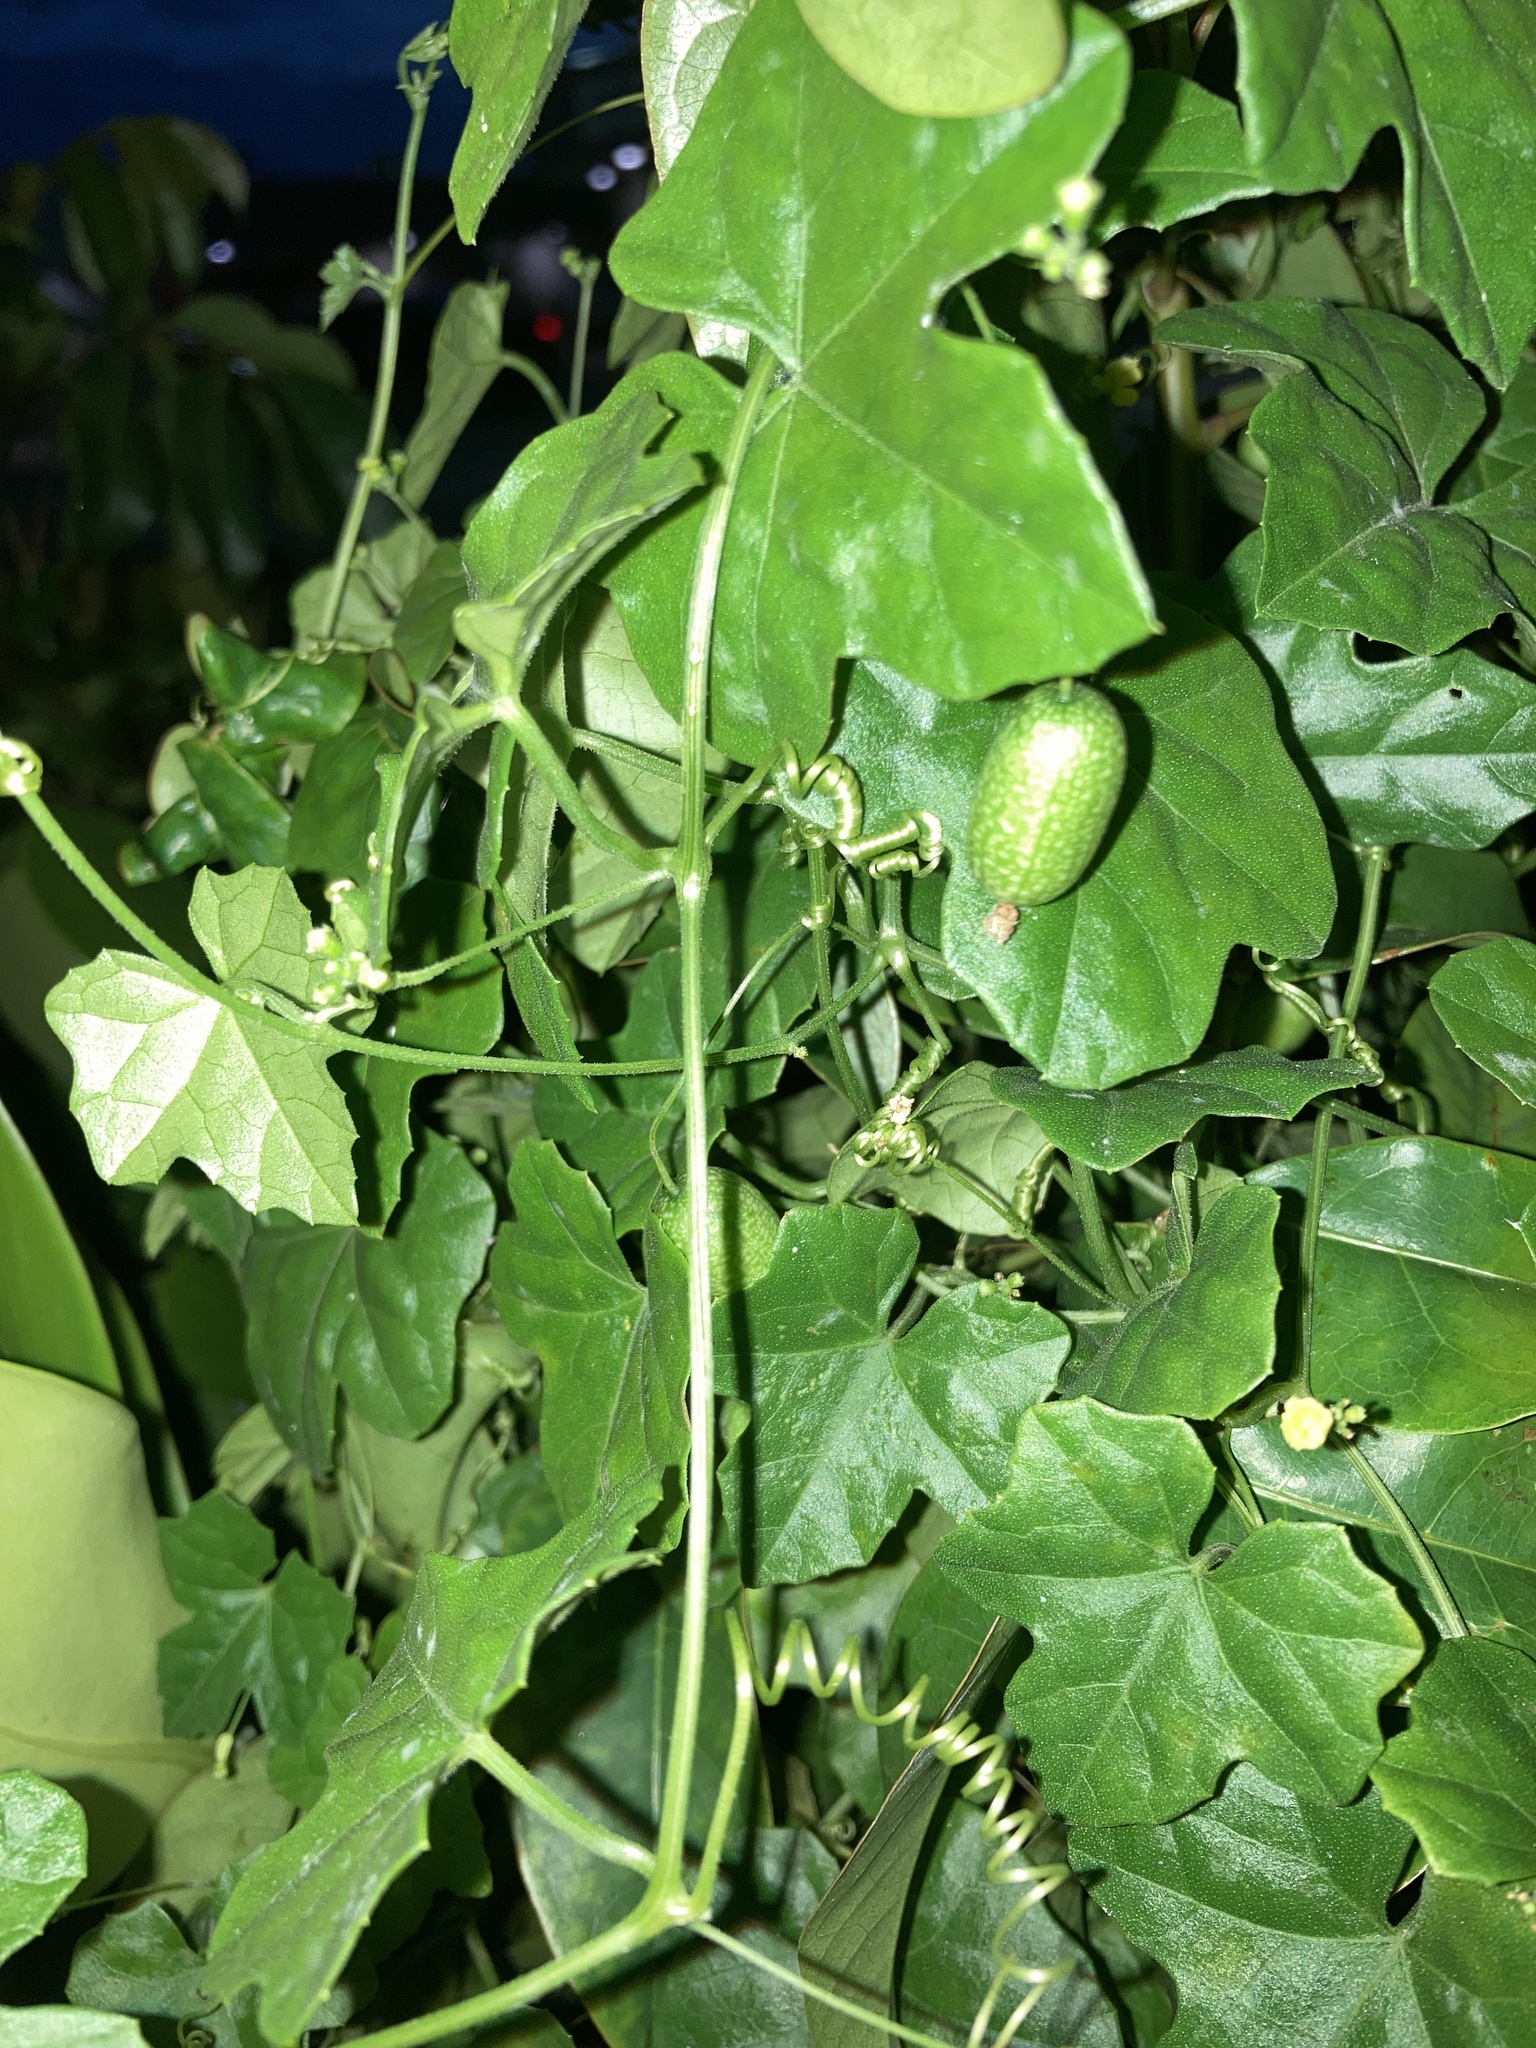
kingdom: Plantae
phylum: Tracheophyta
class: Magnoliopsida
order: Cucurbitales
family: Cucurbitaceae
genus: Melothria
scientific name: Melothria pendula
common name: Creeping-cucumber
